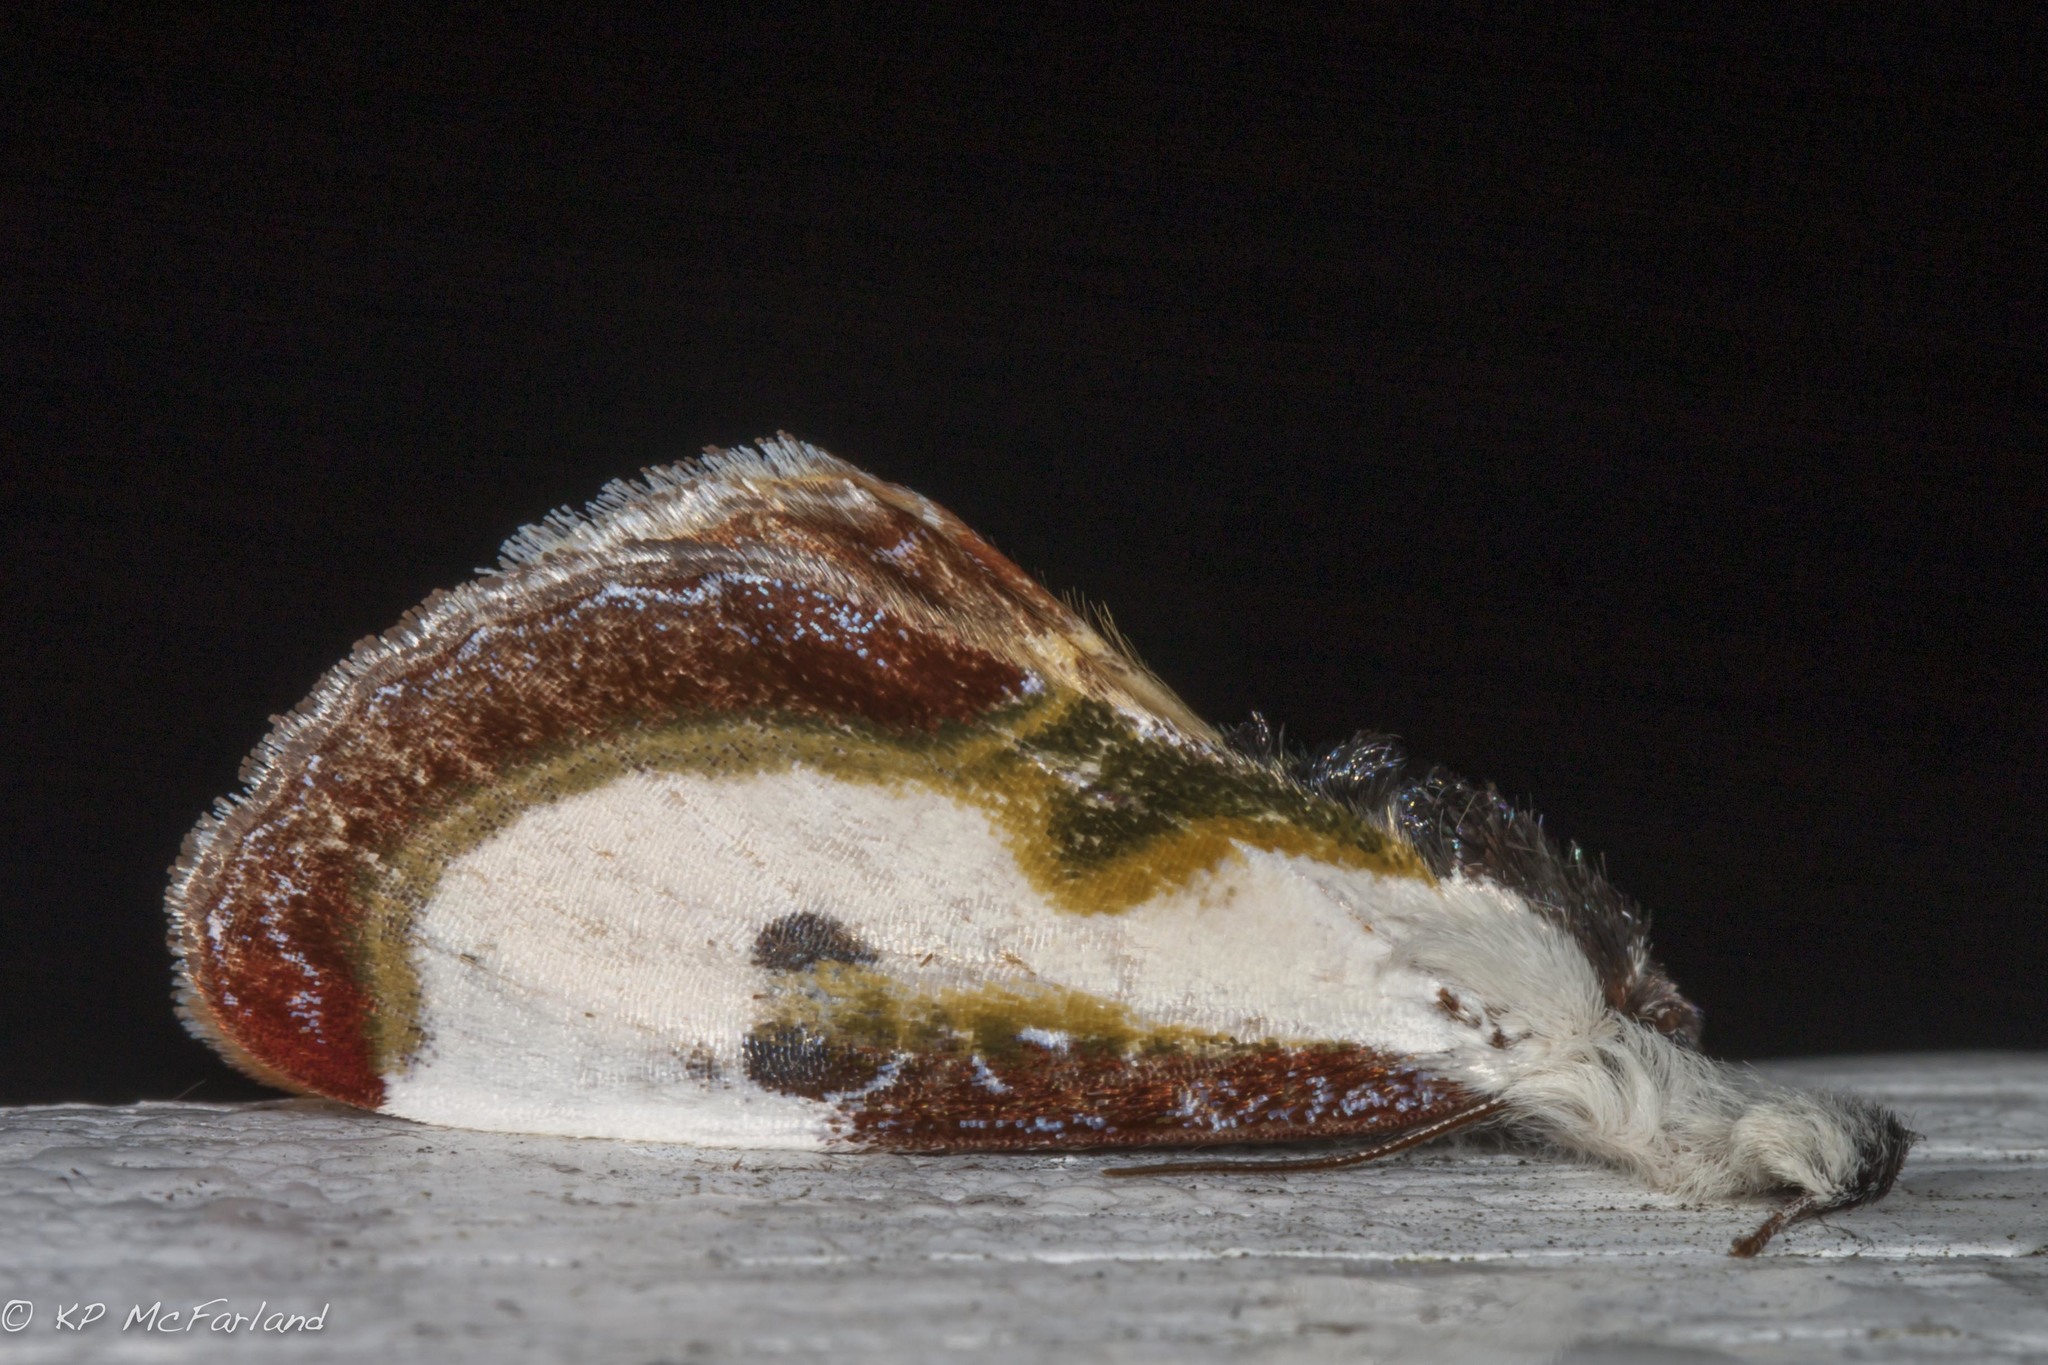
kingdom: Animalia
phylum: Arthropoda
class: Insecta
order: Lepidoptera
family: Noctuidae
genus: Eudryas
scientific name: Eudryas grata
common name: Beautiful wood-nymph
